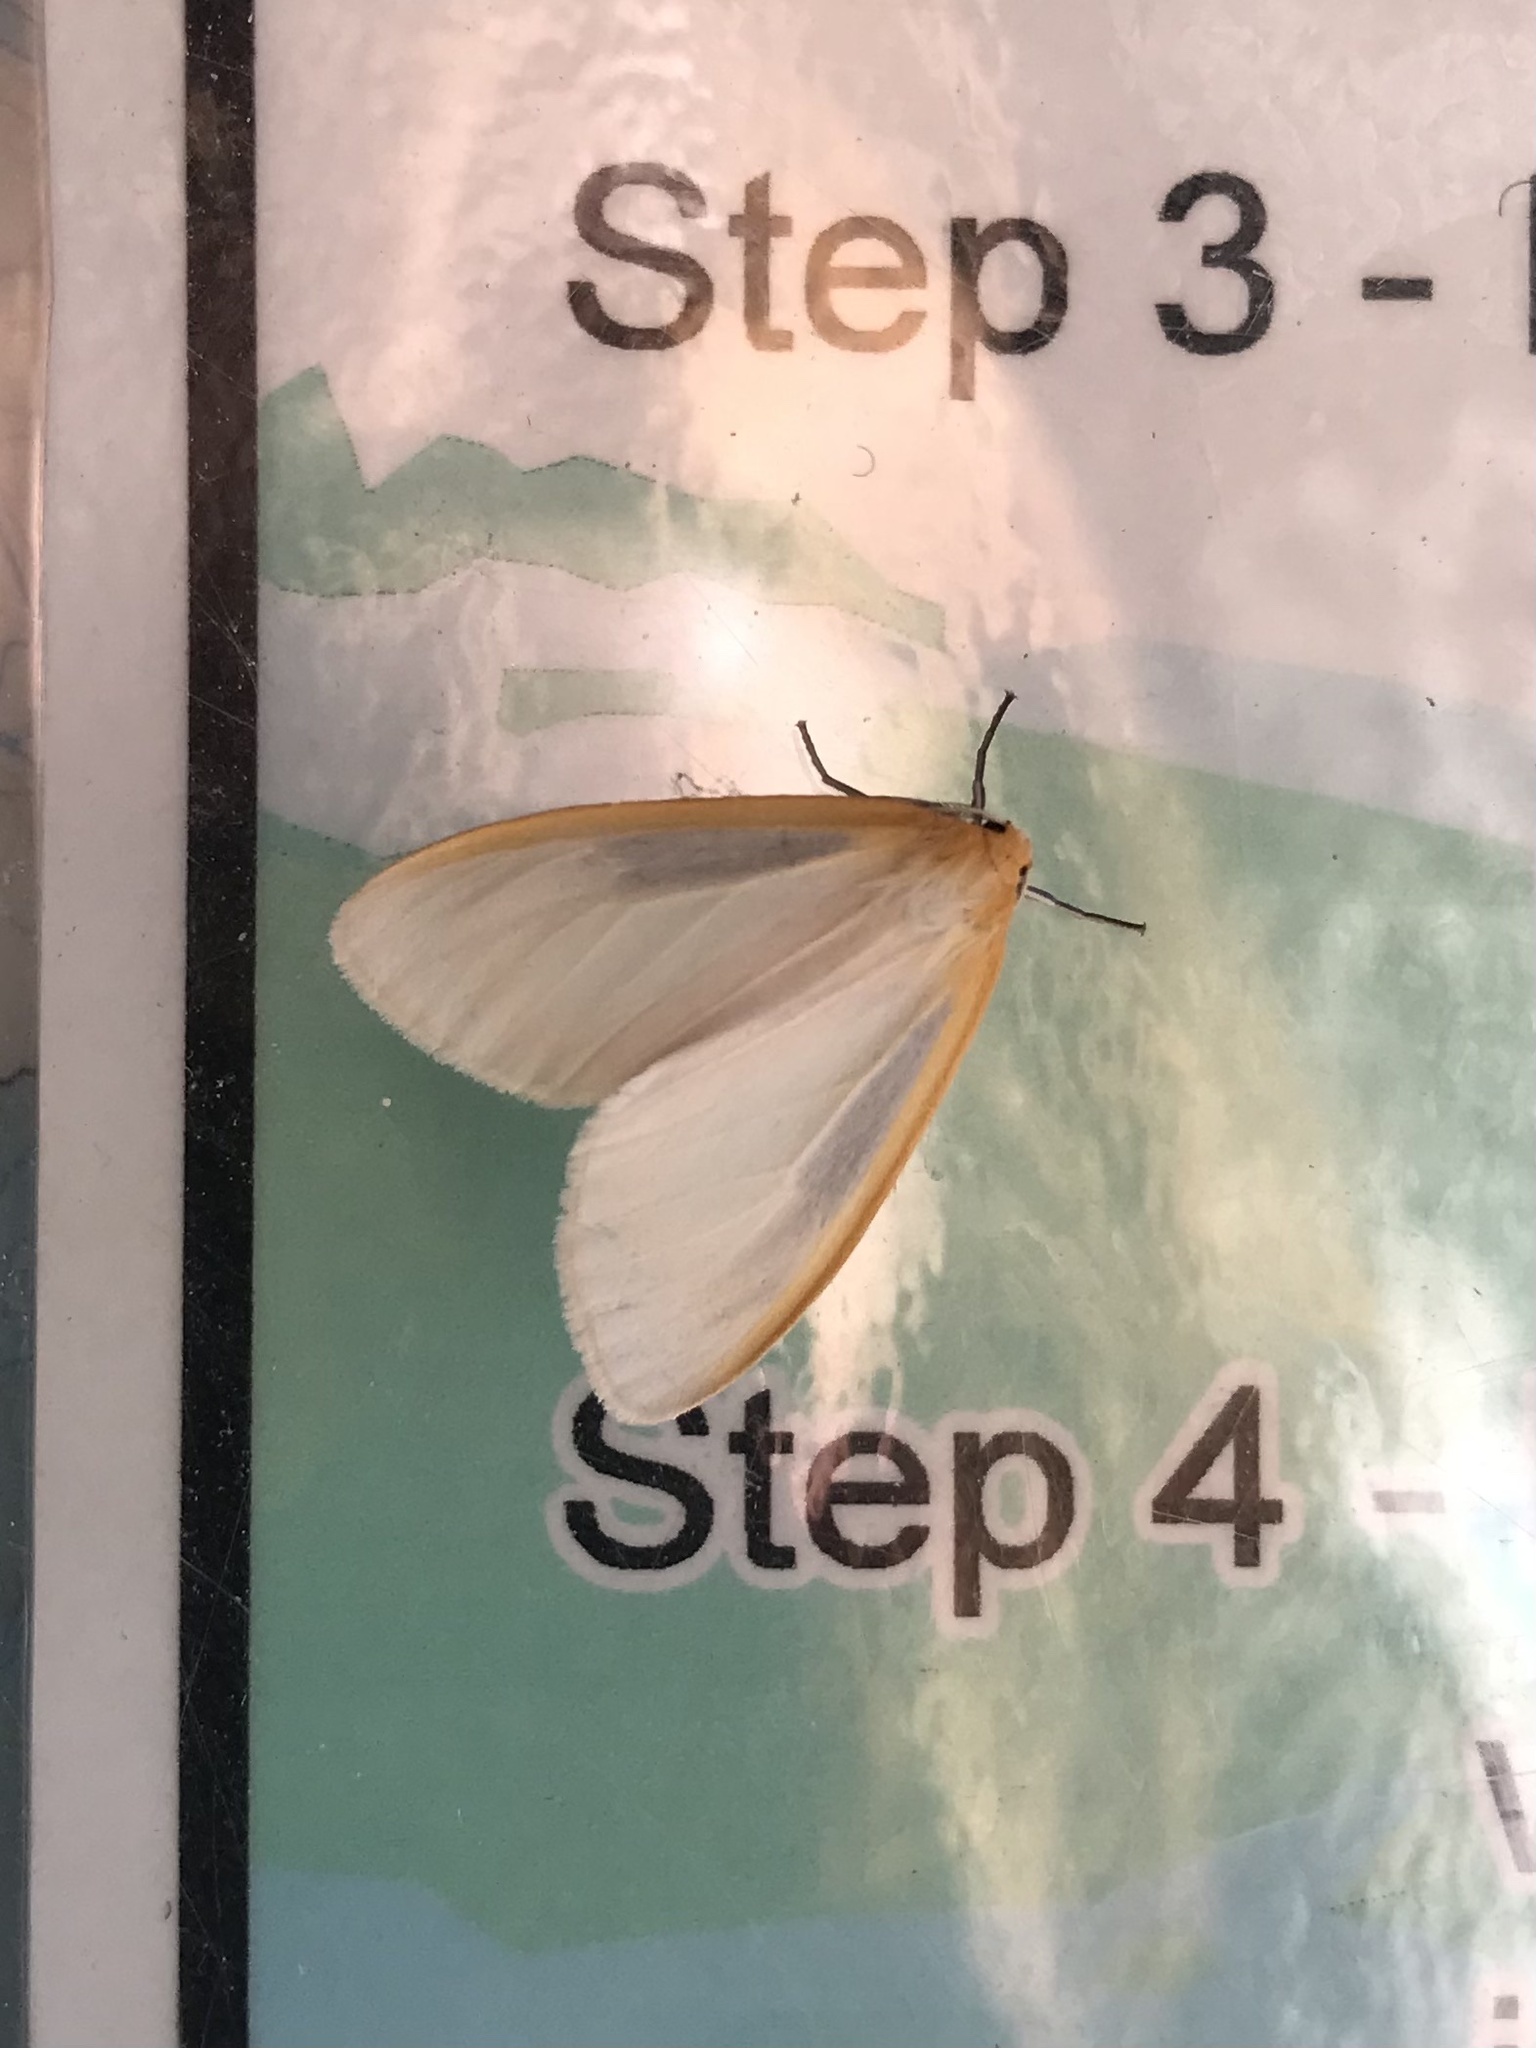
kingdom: Animalia
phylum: Arthropoda
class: Insecta
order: Lepidoptera
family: Erebidae
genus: Cycnia
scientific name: Cycnia tenera
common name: Delicate cycnia moth
